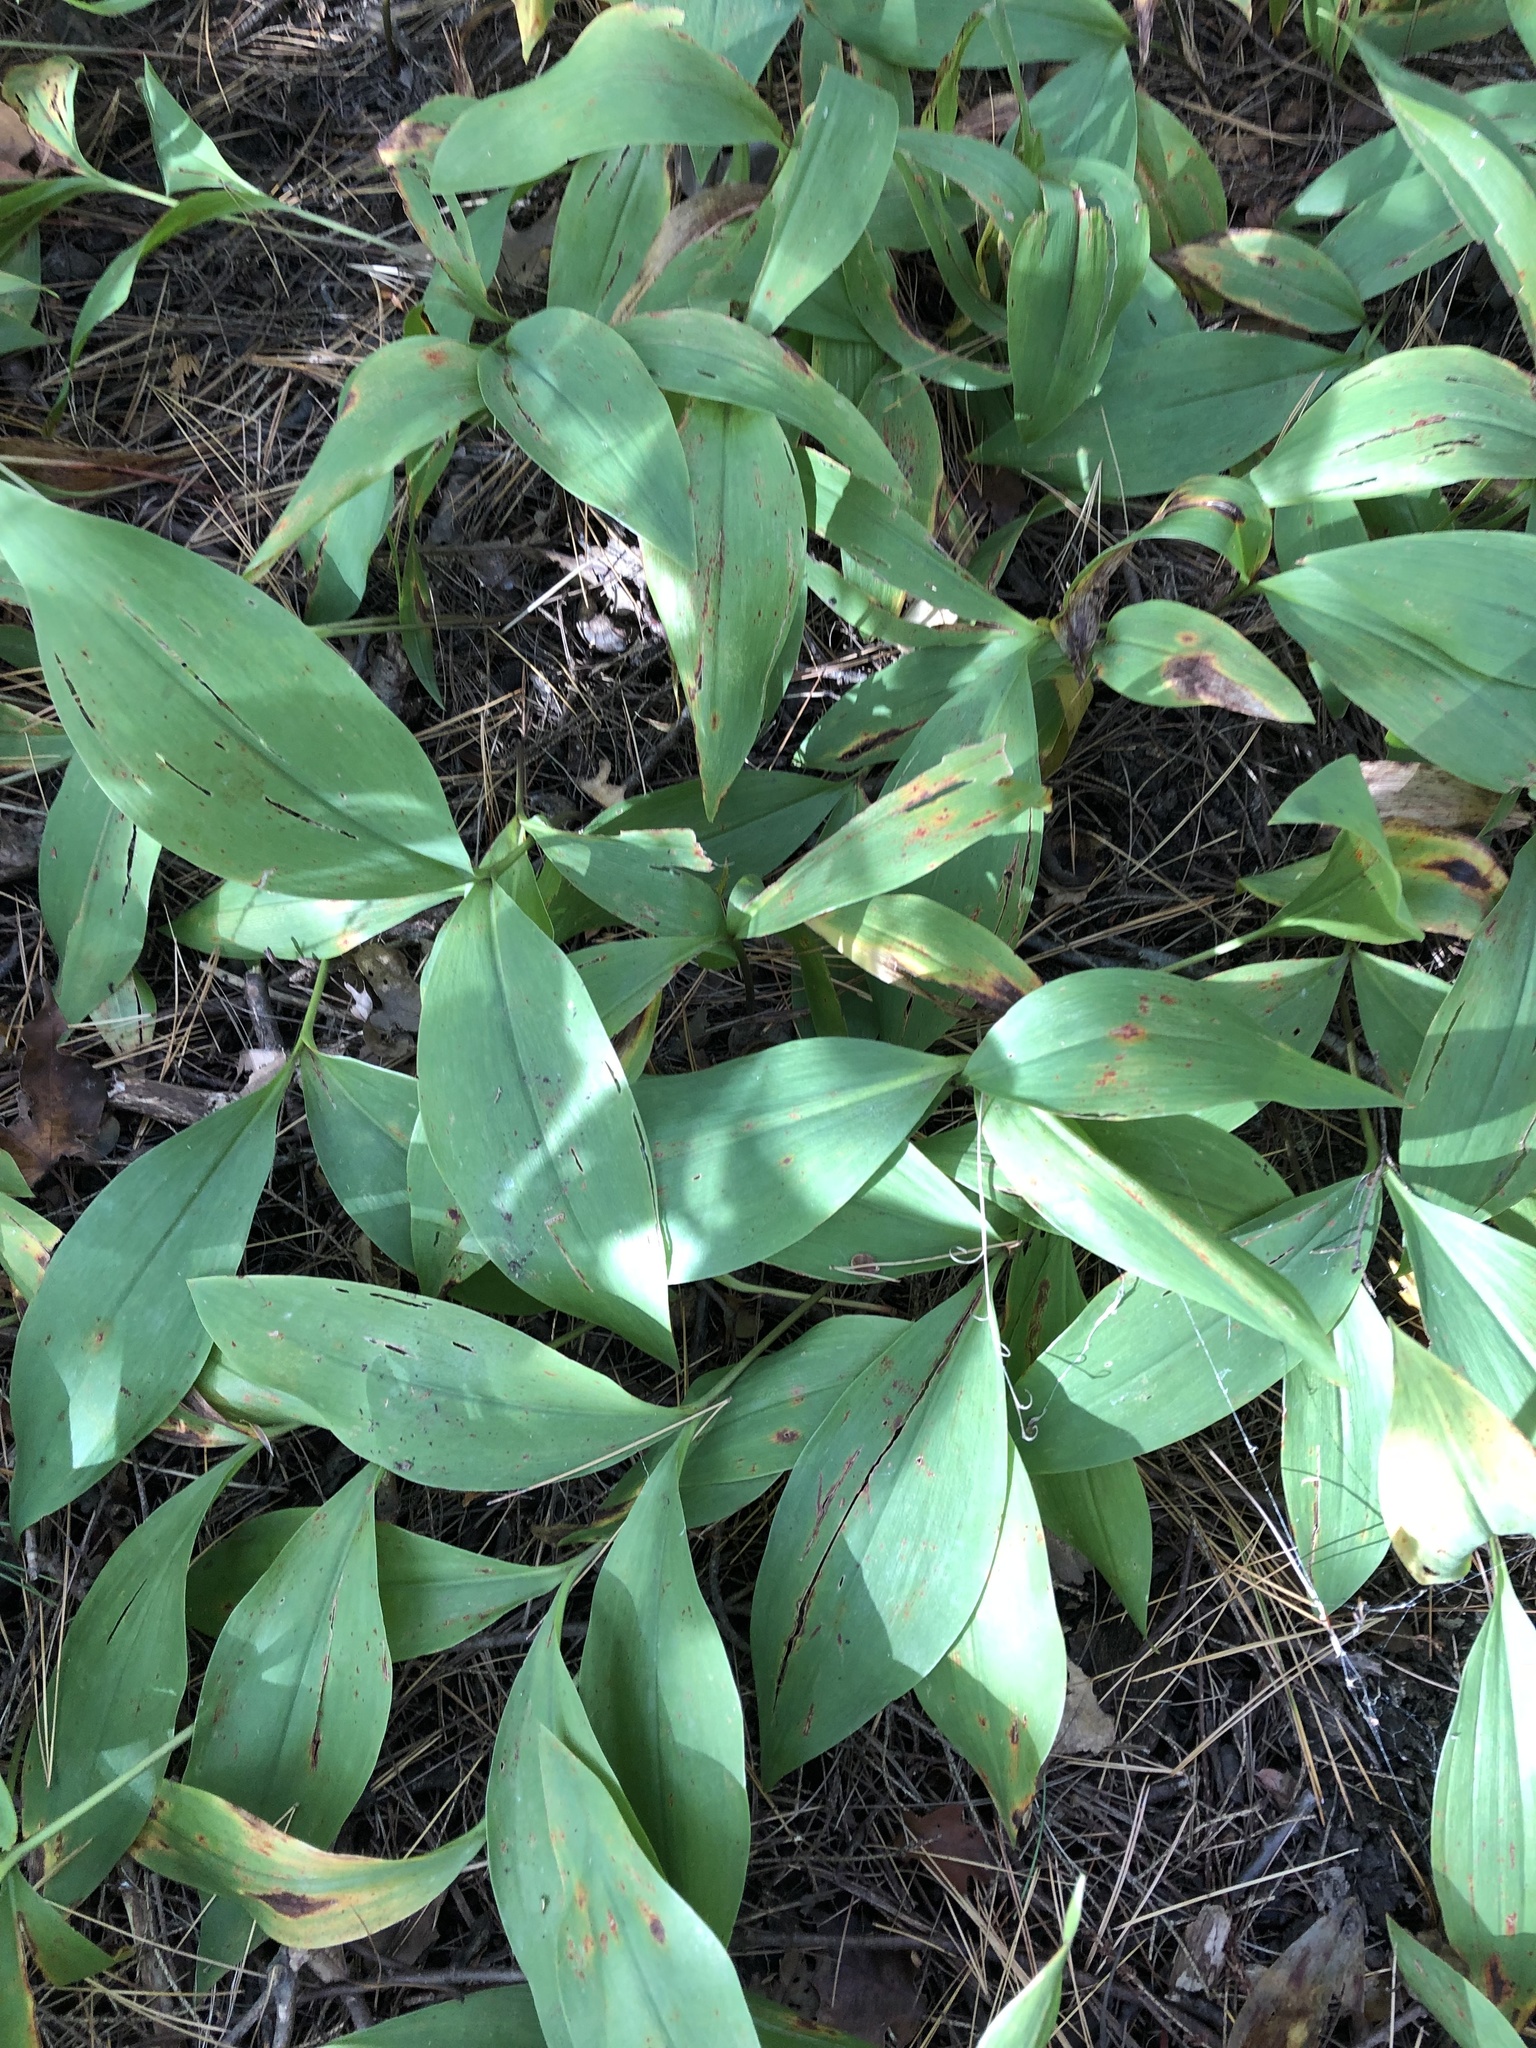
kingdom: Plantae
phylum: Tracheophyta
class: Liliopsida
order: Asparagales
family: Asparagaceae
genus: Convallaria
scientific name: Convallaria majalis
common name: Lily-of-the-valley
